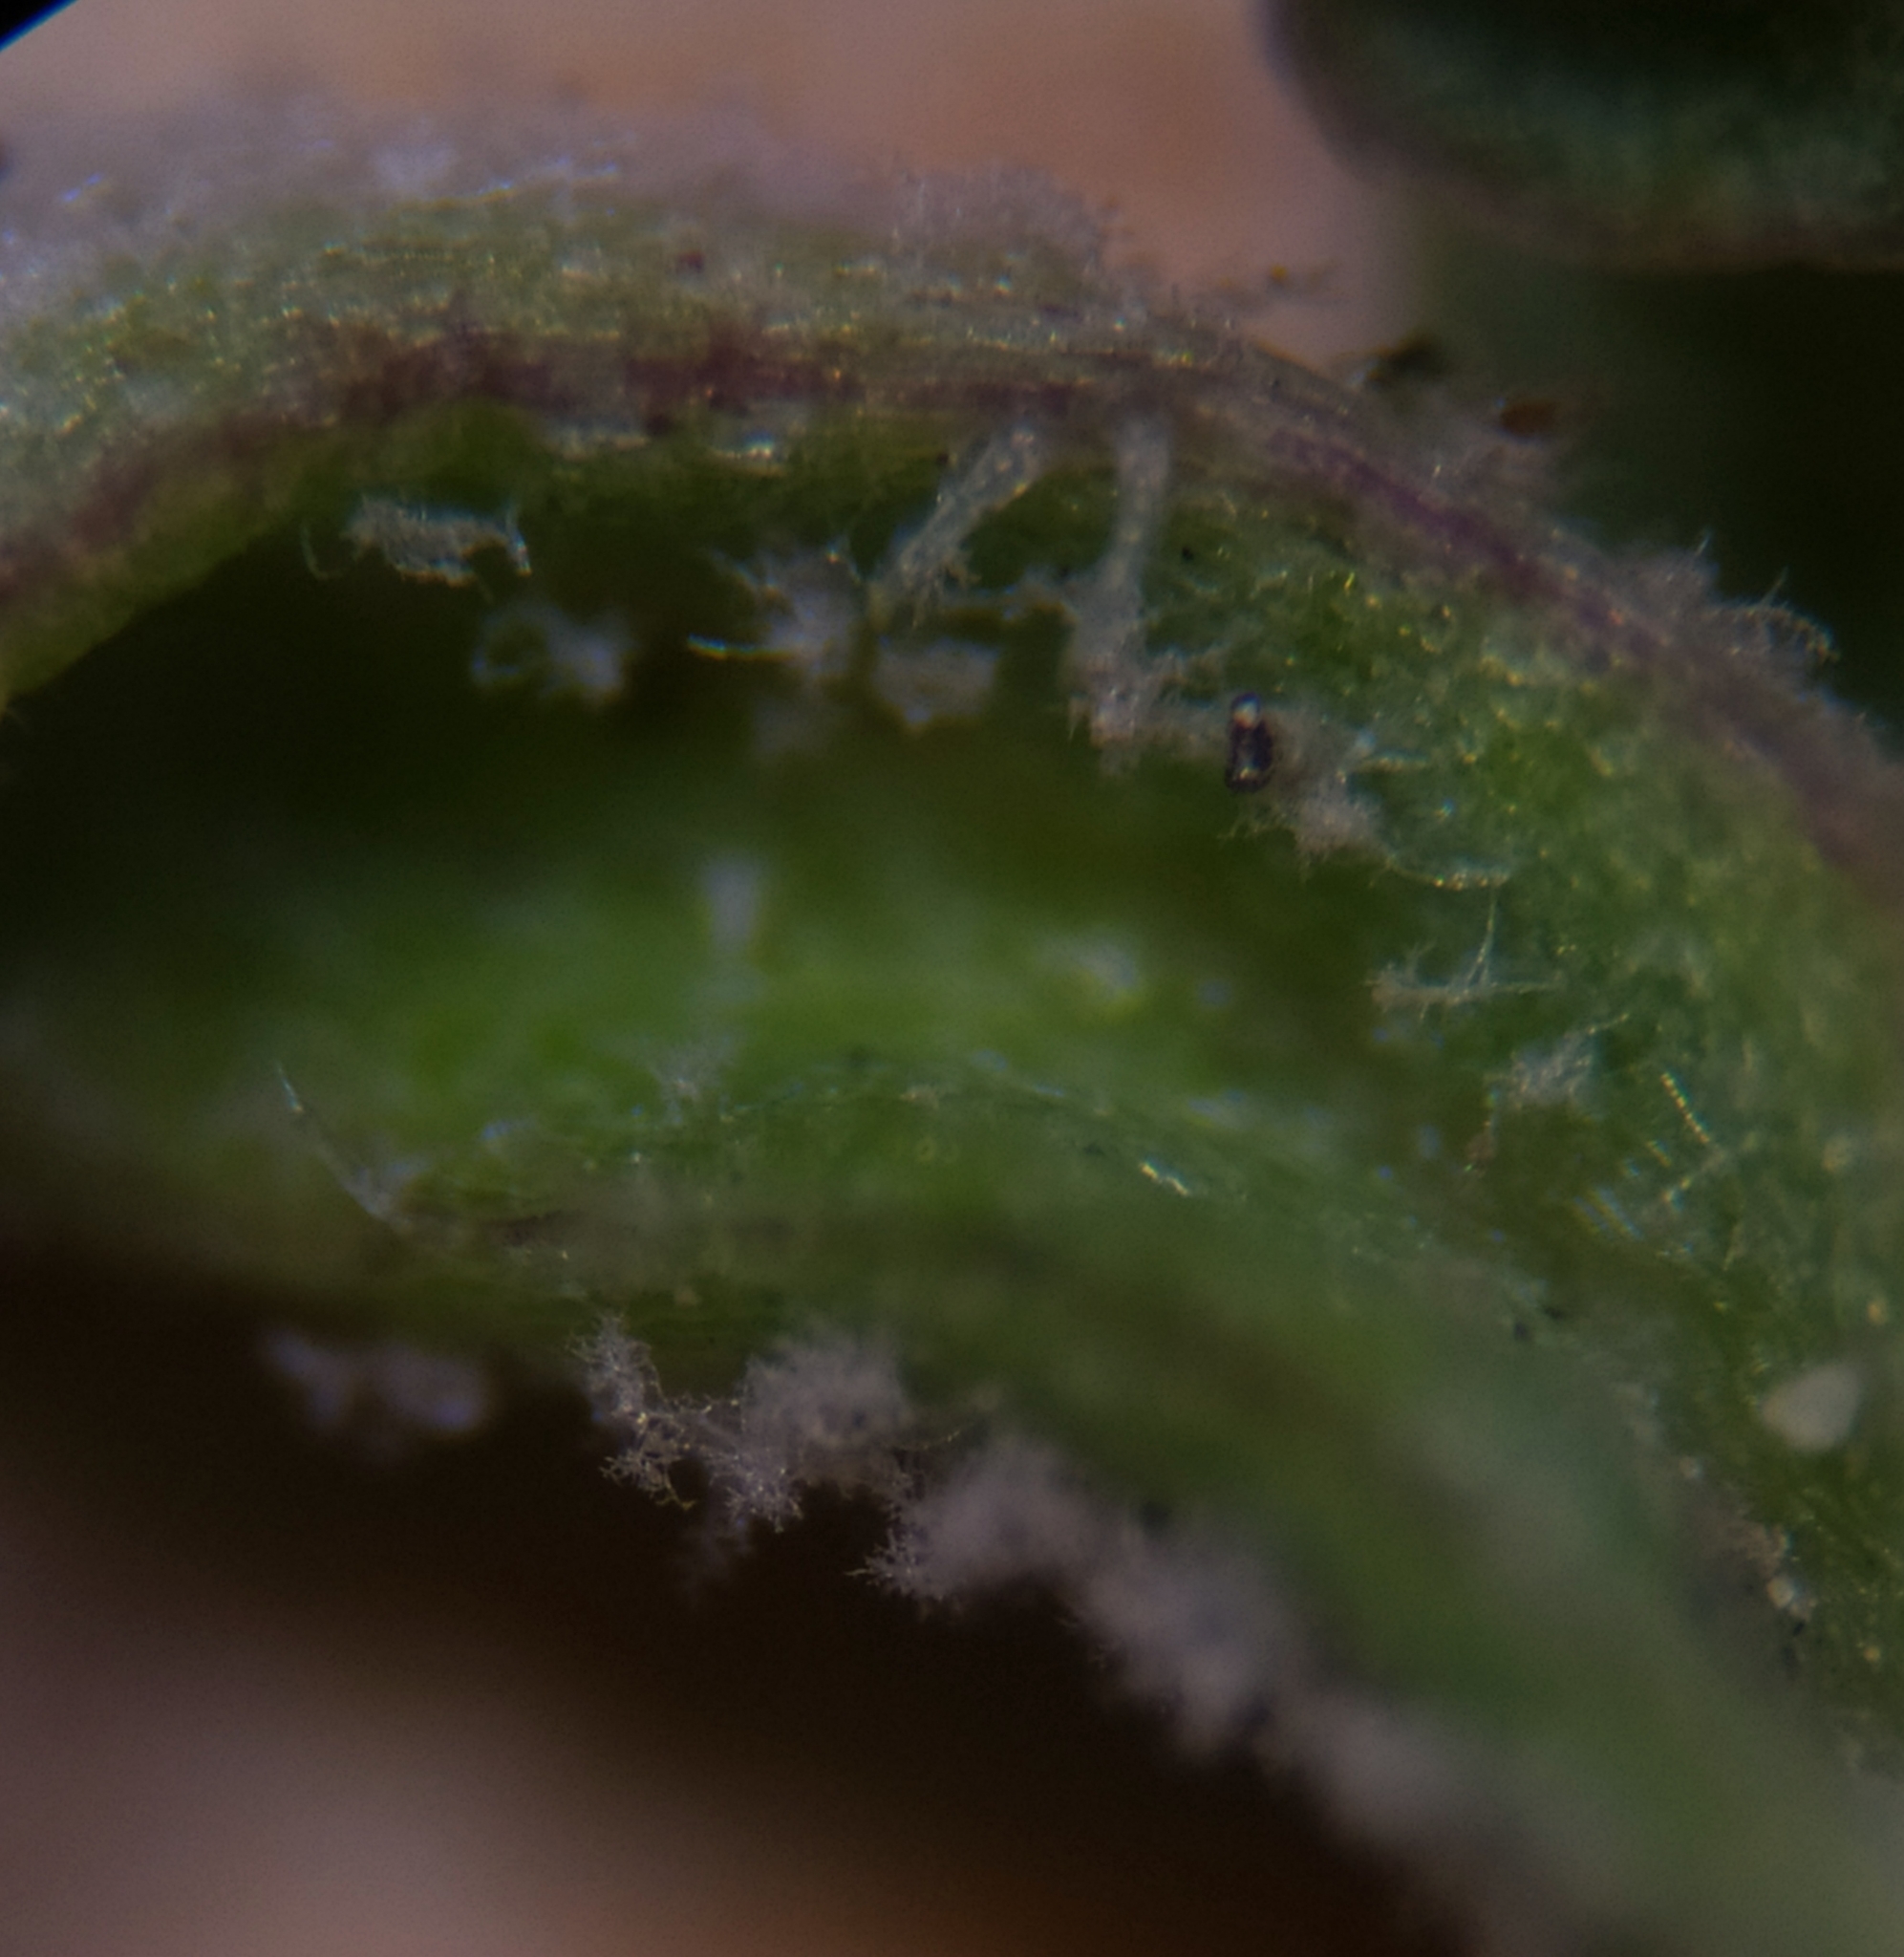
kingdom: Chromista
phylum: Oomycota
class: Peronosporea
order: Peronosporales
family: Peronosporaceae
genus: Peronospora
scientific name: Peronospora holostei
